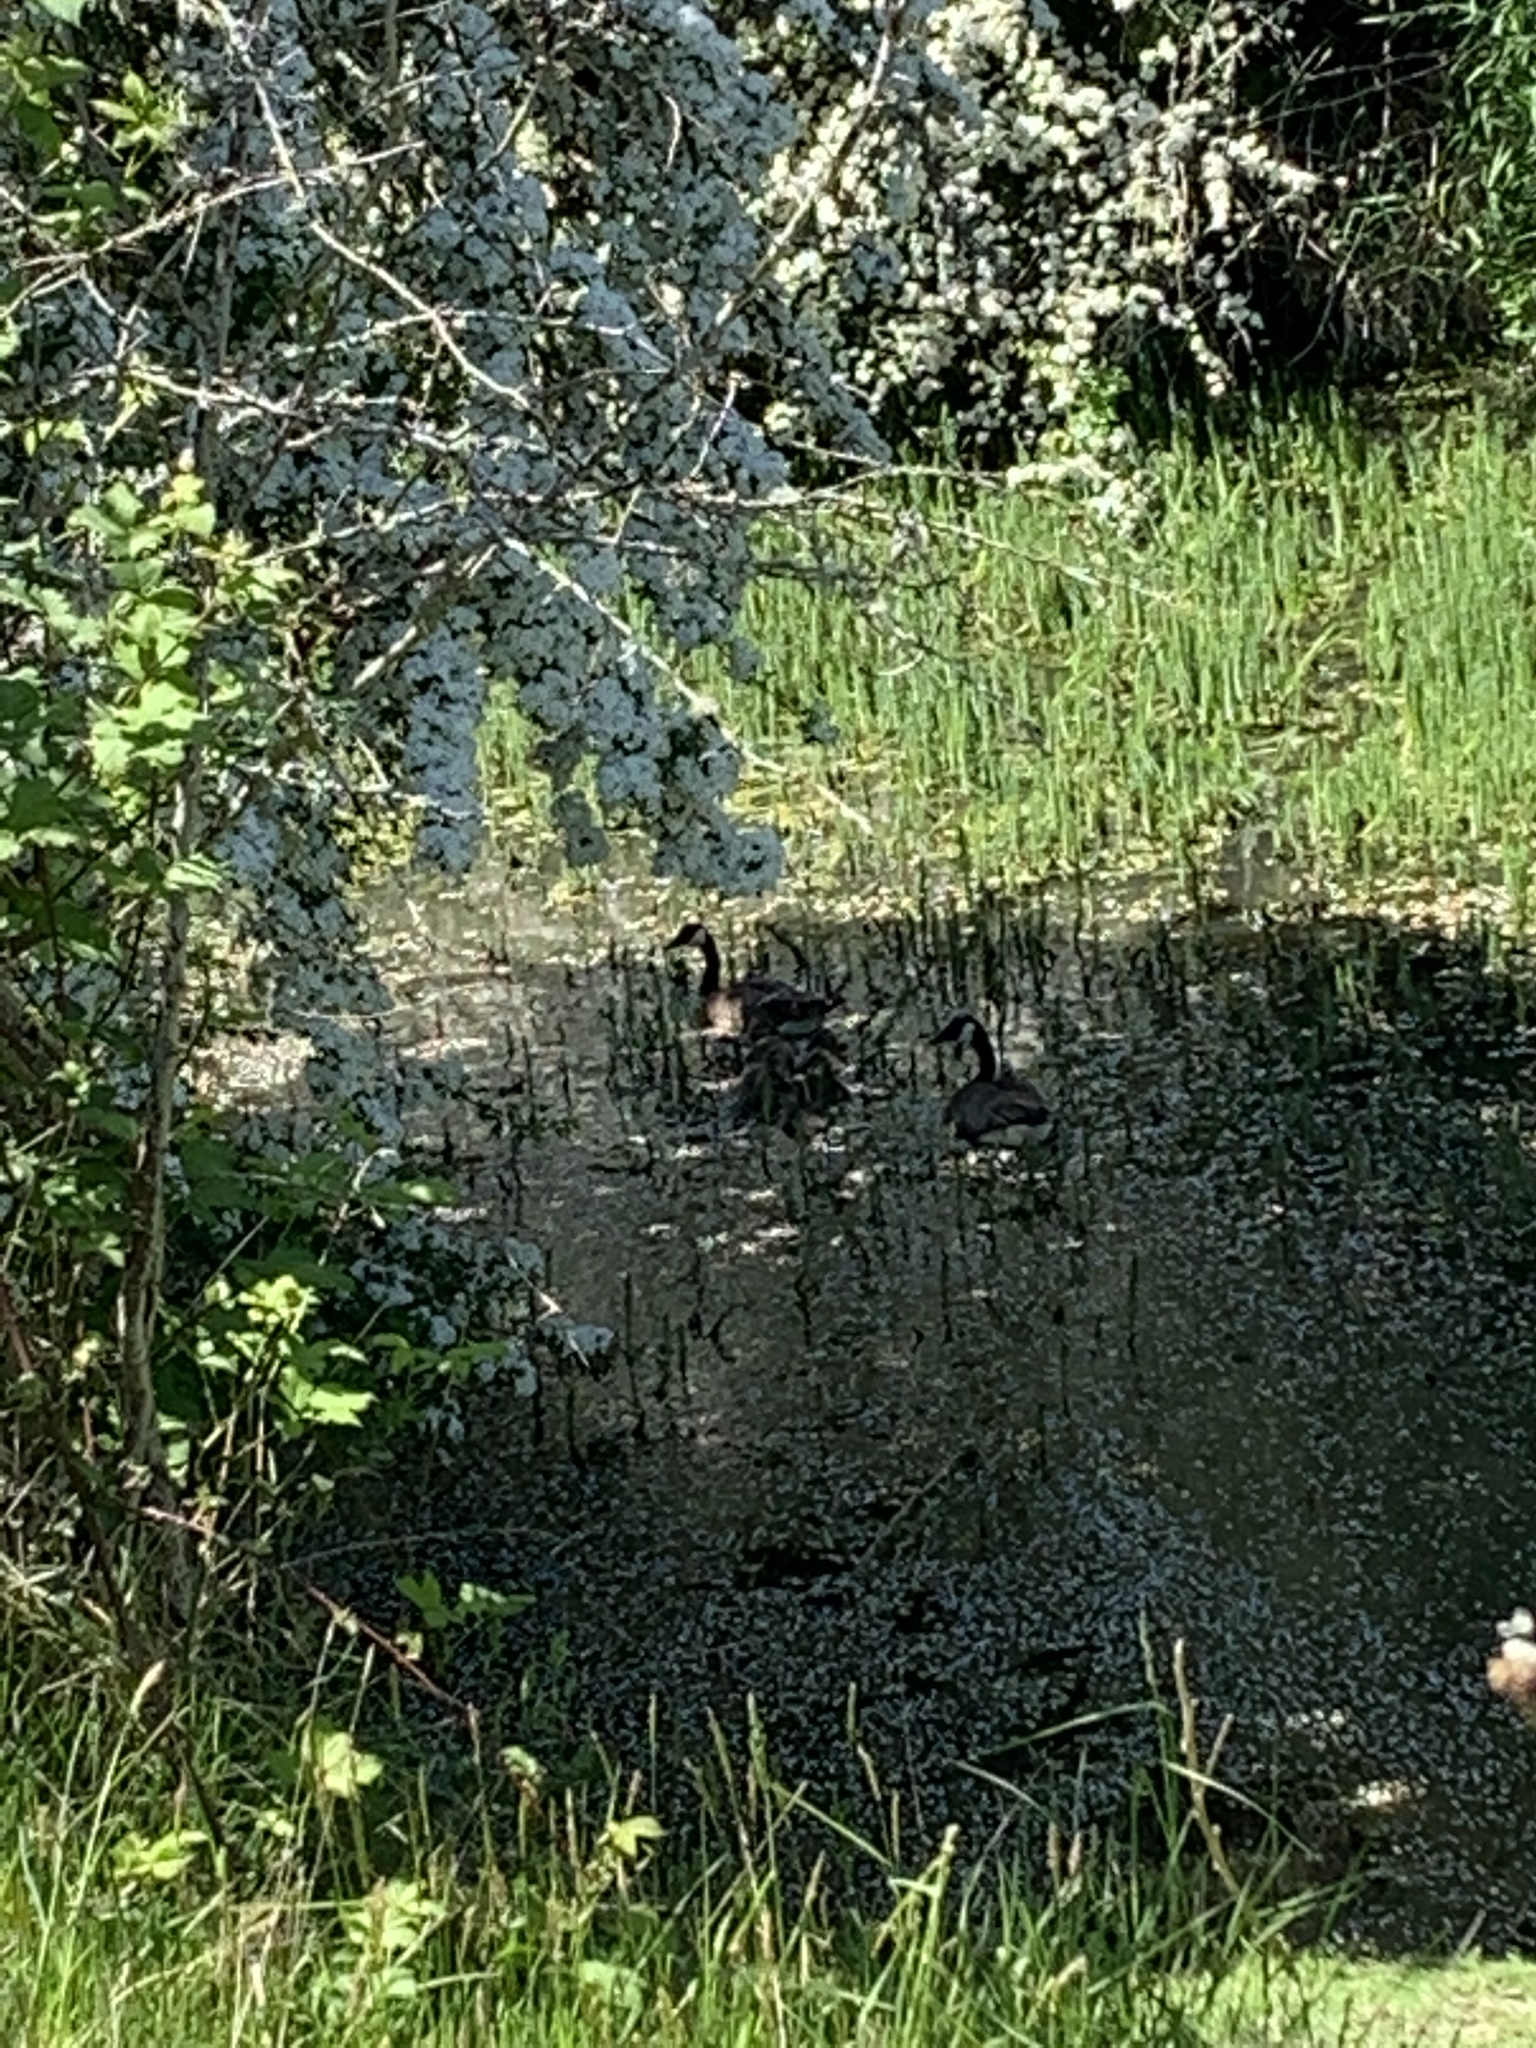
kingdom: Animalia
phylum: Chordata
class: Aves
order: Anseriformes
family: Anatidae
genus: Branta
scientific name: Branta canadensis
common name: Canada goose
